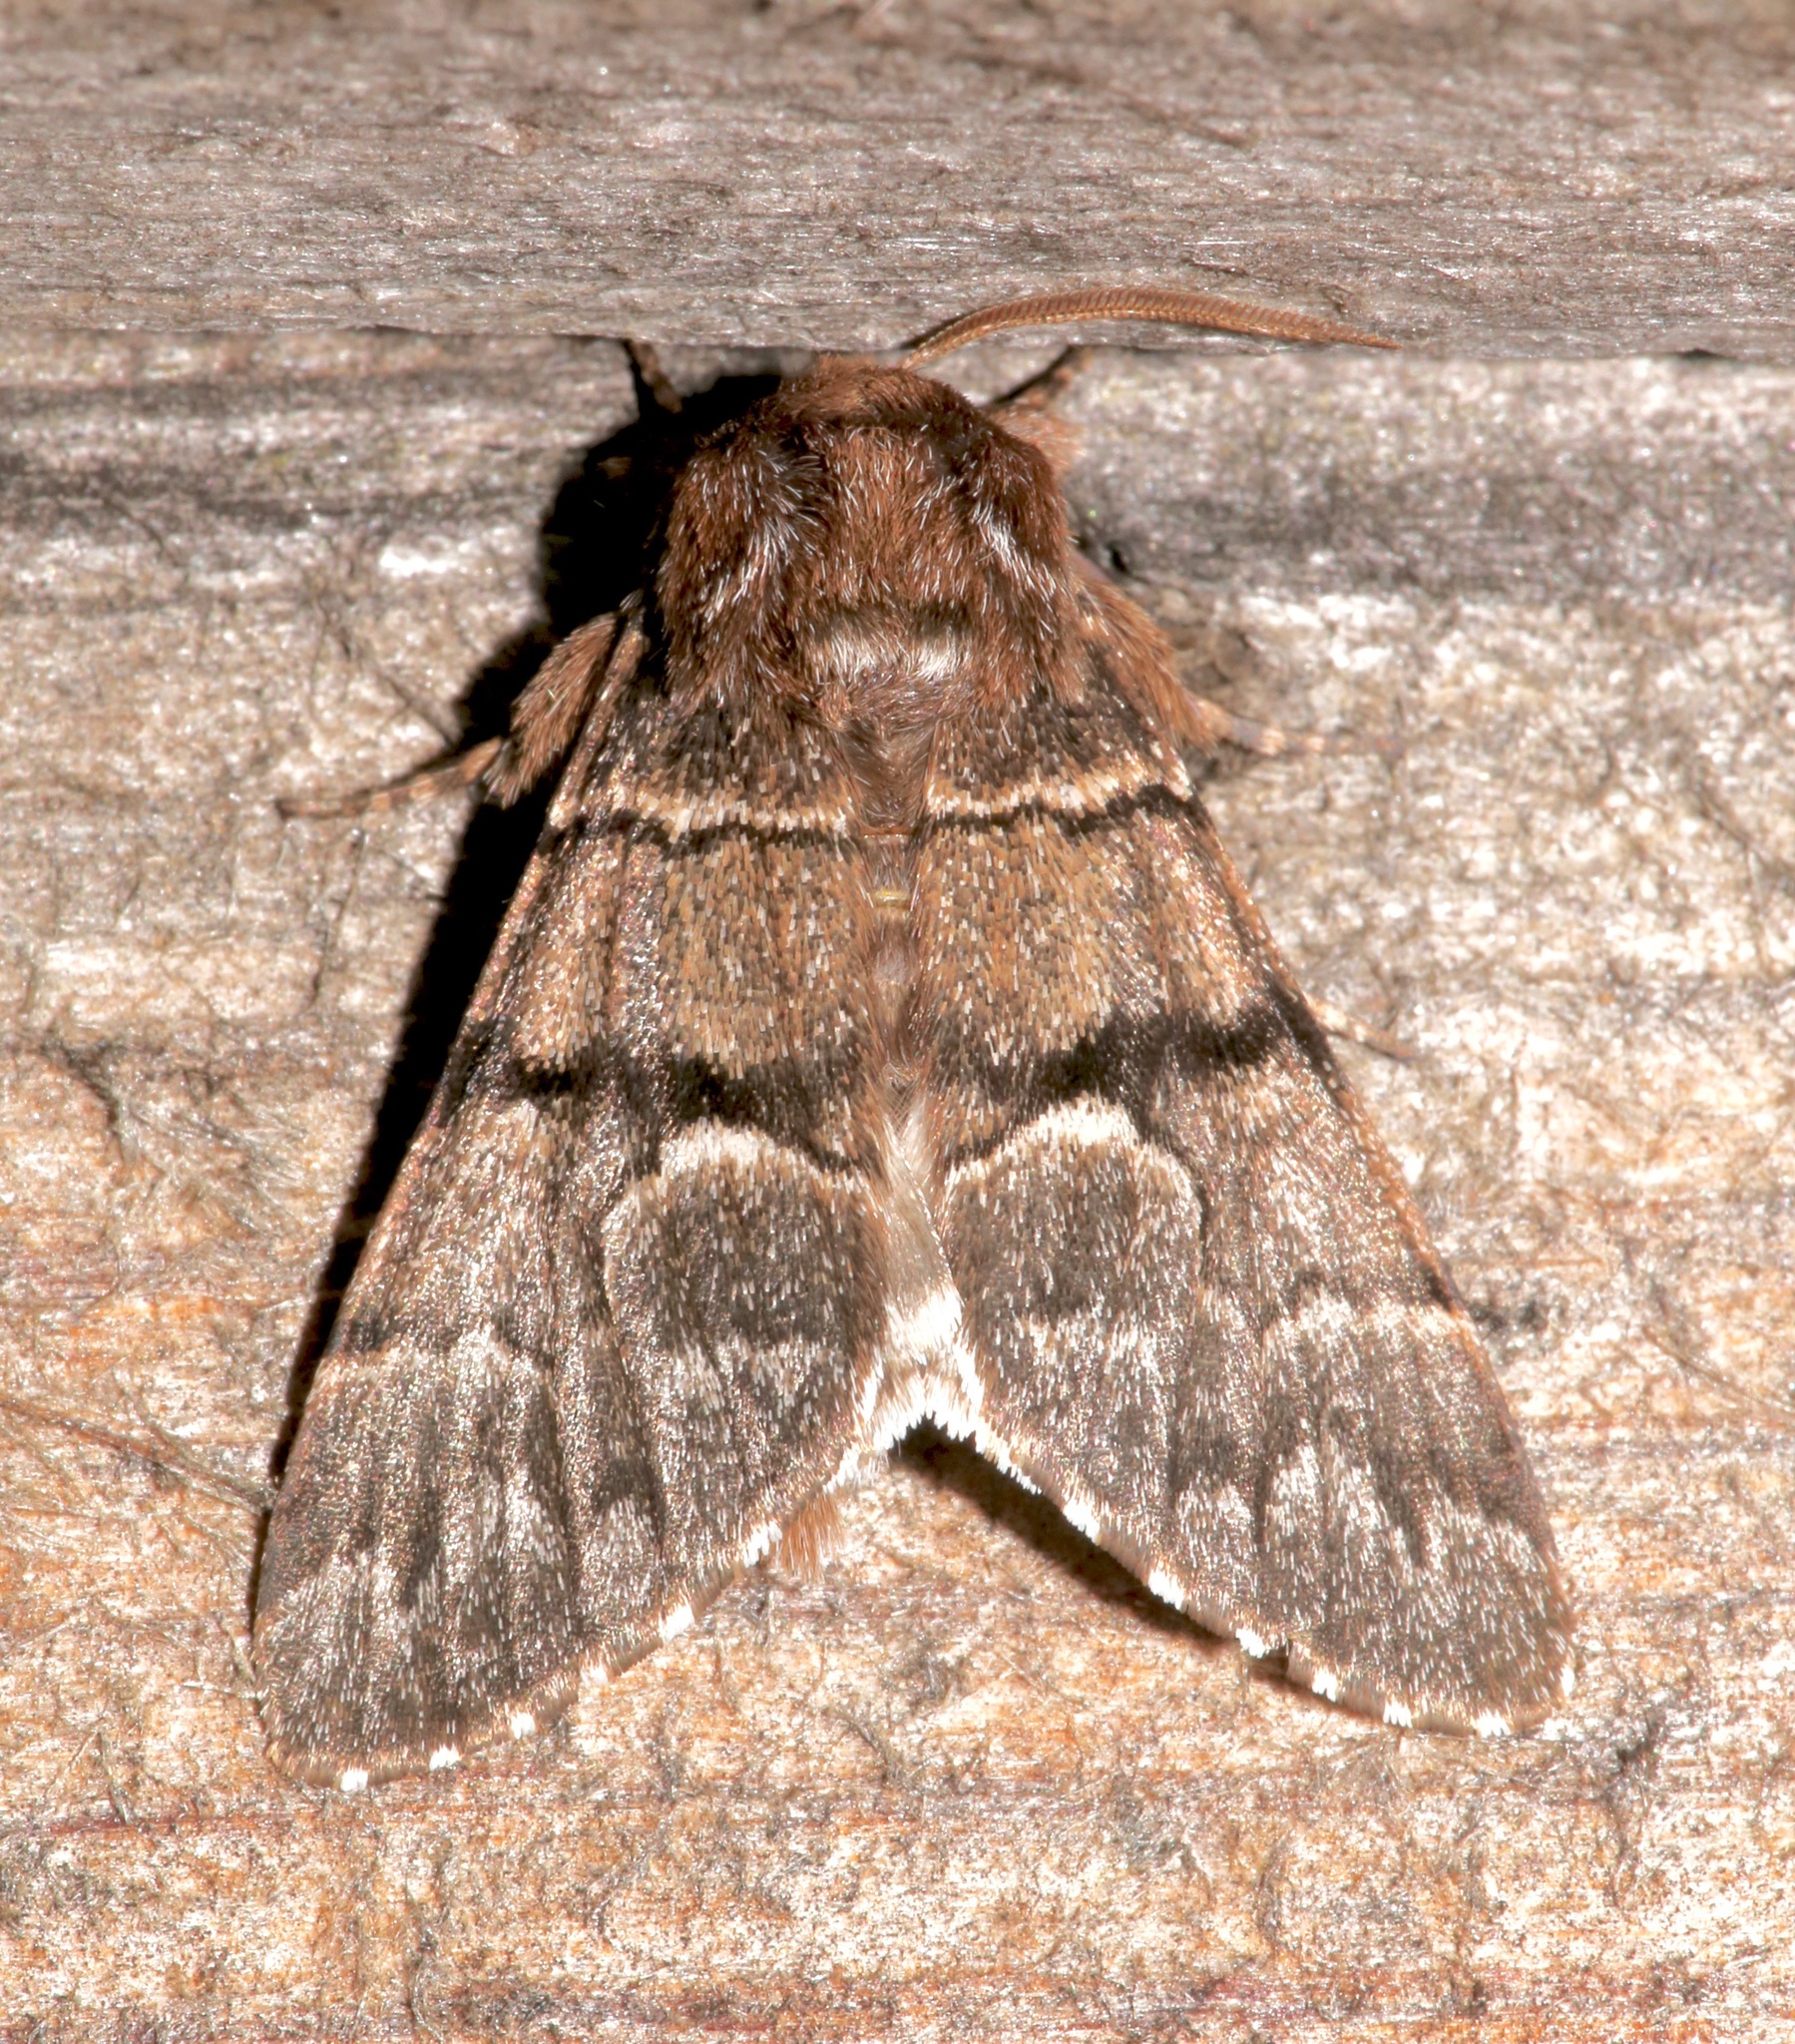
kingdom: Animalia
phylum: Arthropoda
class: Insecta
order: Lepidoptera
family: Noctuidae
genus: Panthea
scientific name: Panthea furcilla
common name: Eastern panthea moth
